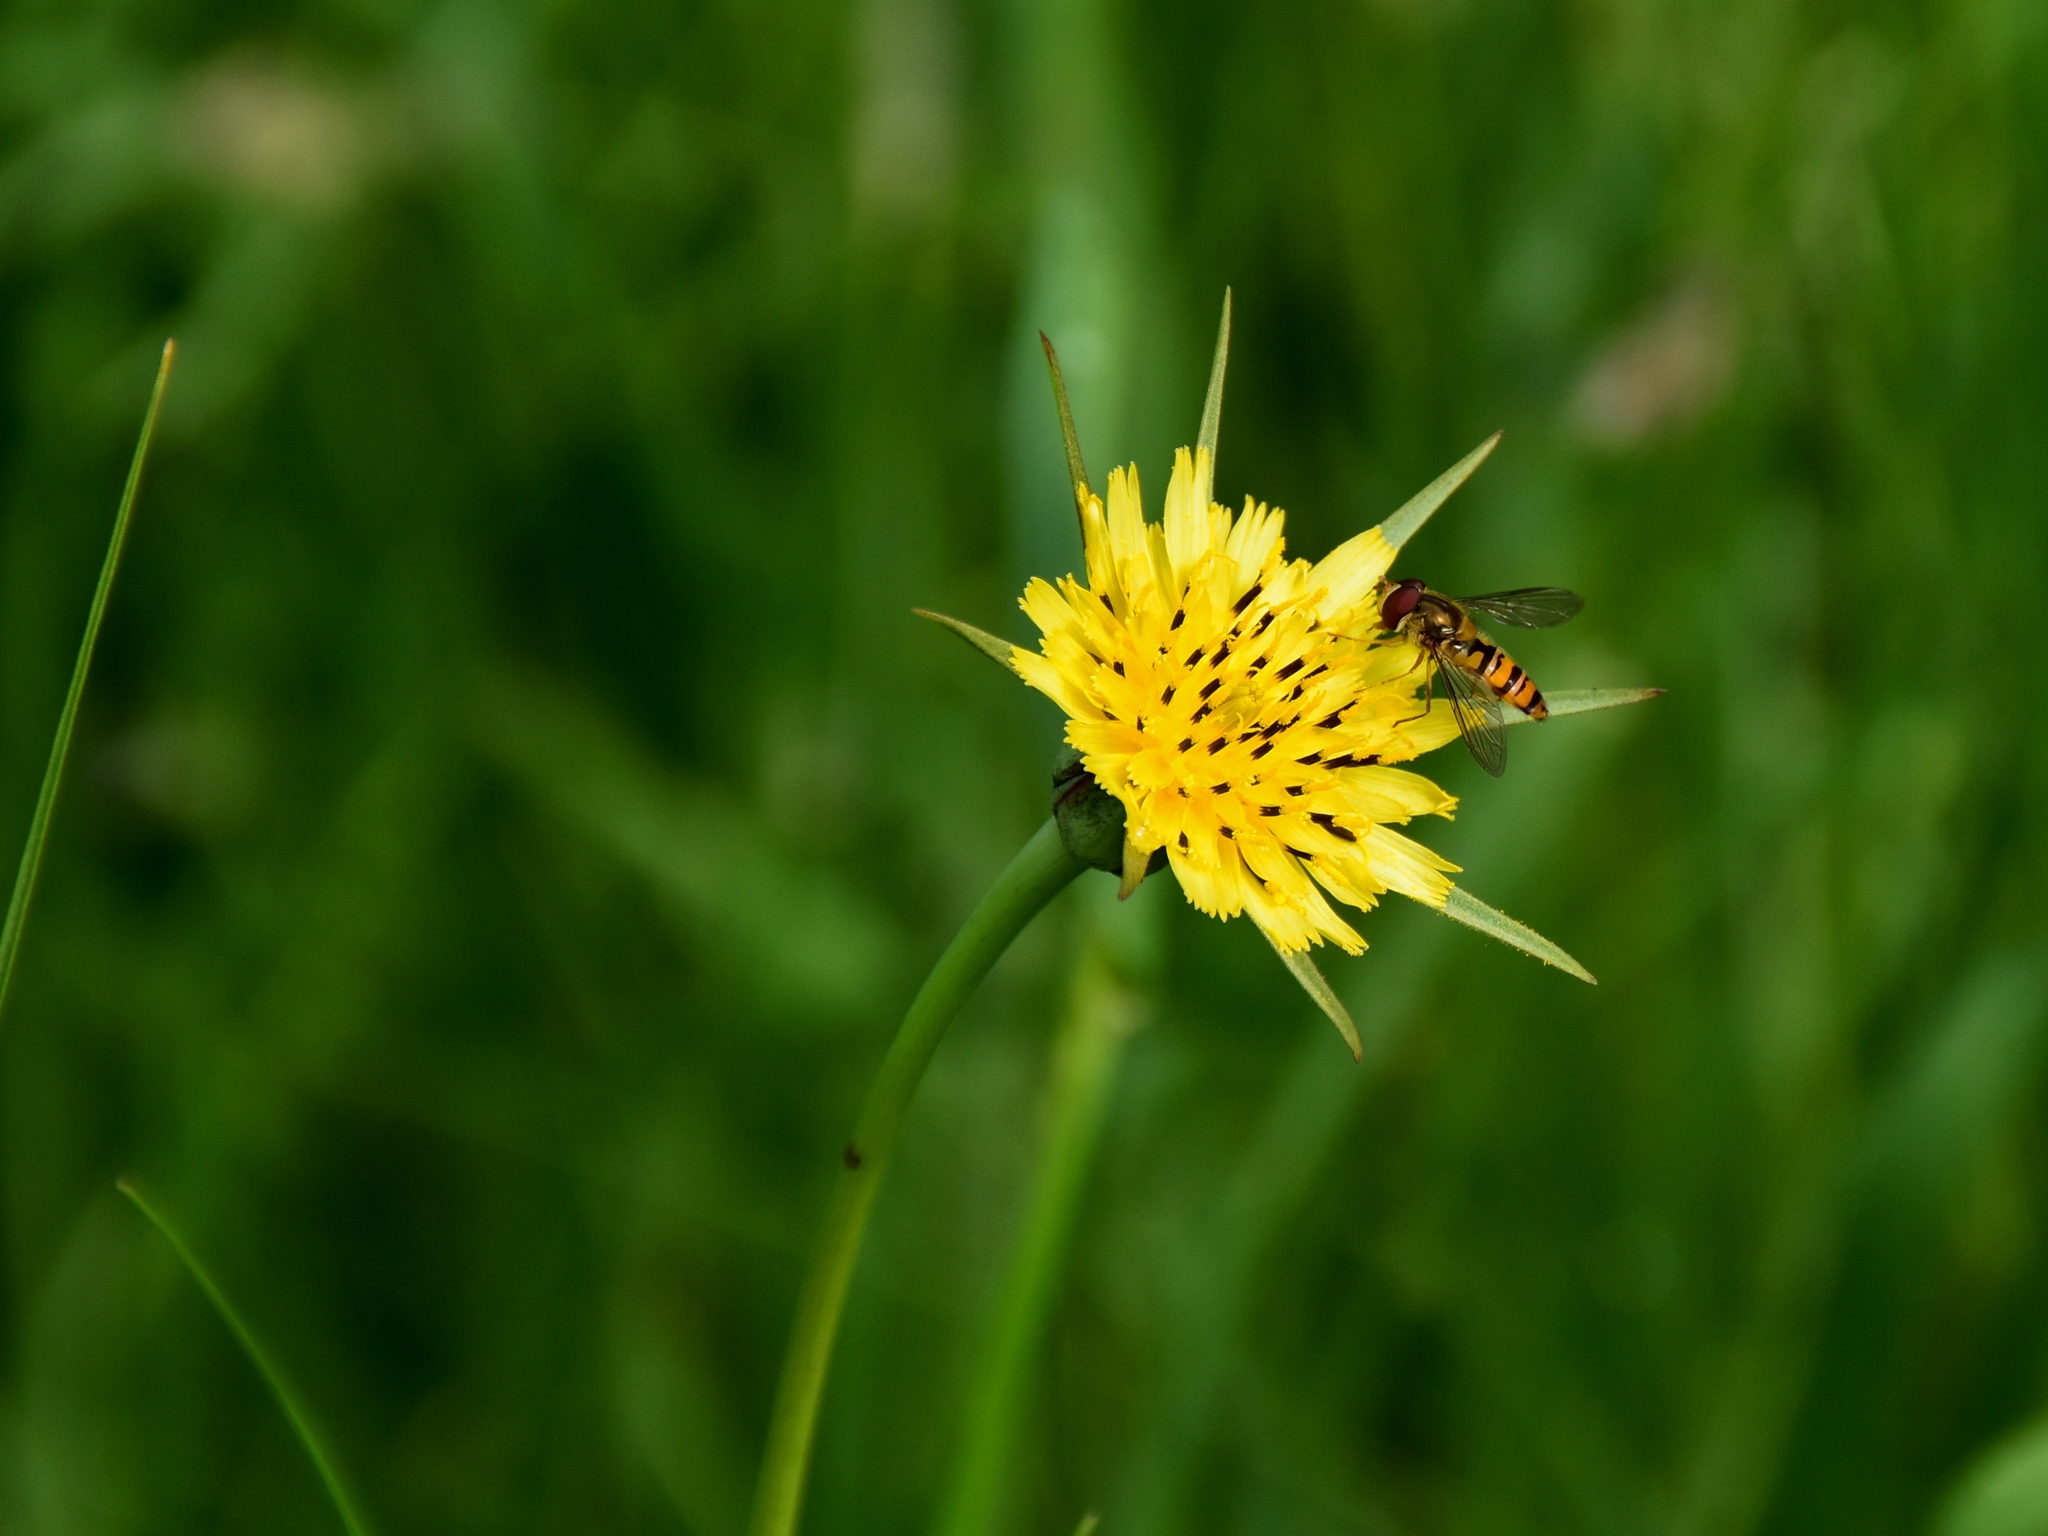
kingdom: Plantae
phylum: Tracheophyta
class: Magnoliopsida
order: Asterales
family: Asteraceae
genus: Tragopogon
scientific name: Tragopogon pratensis
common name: Goat's-beard
